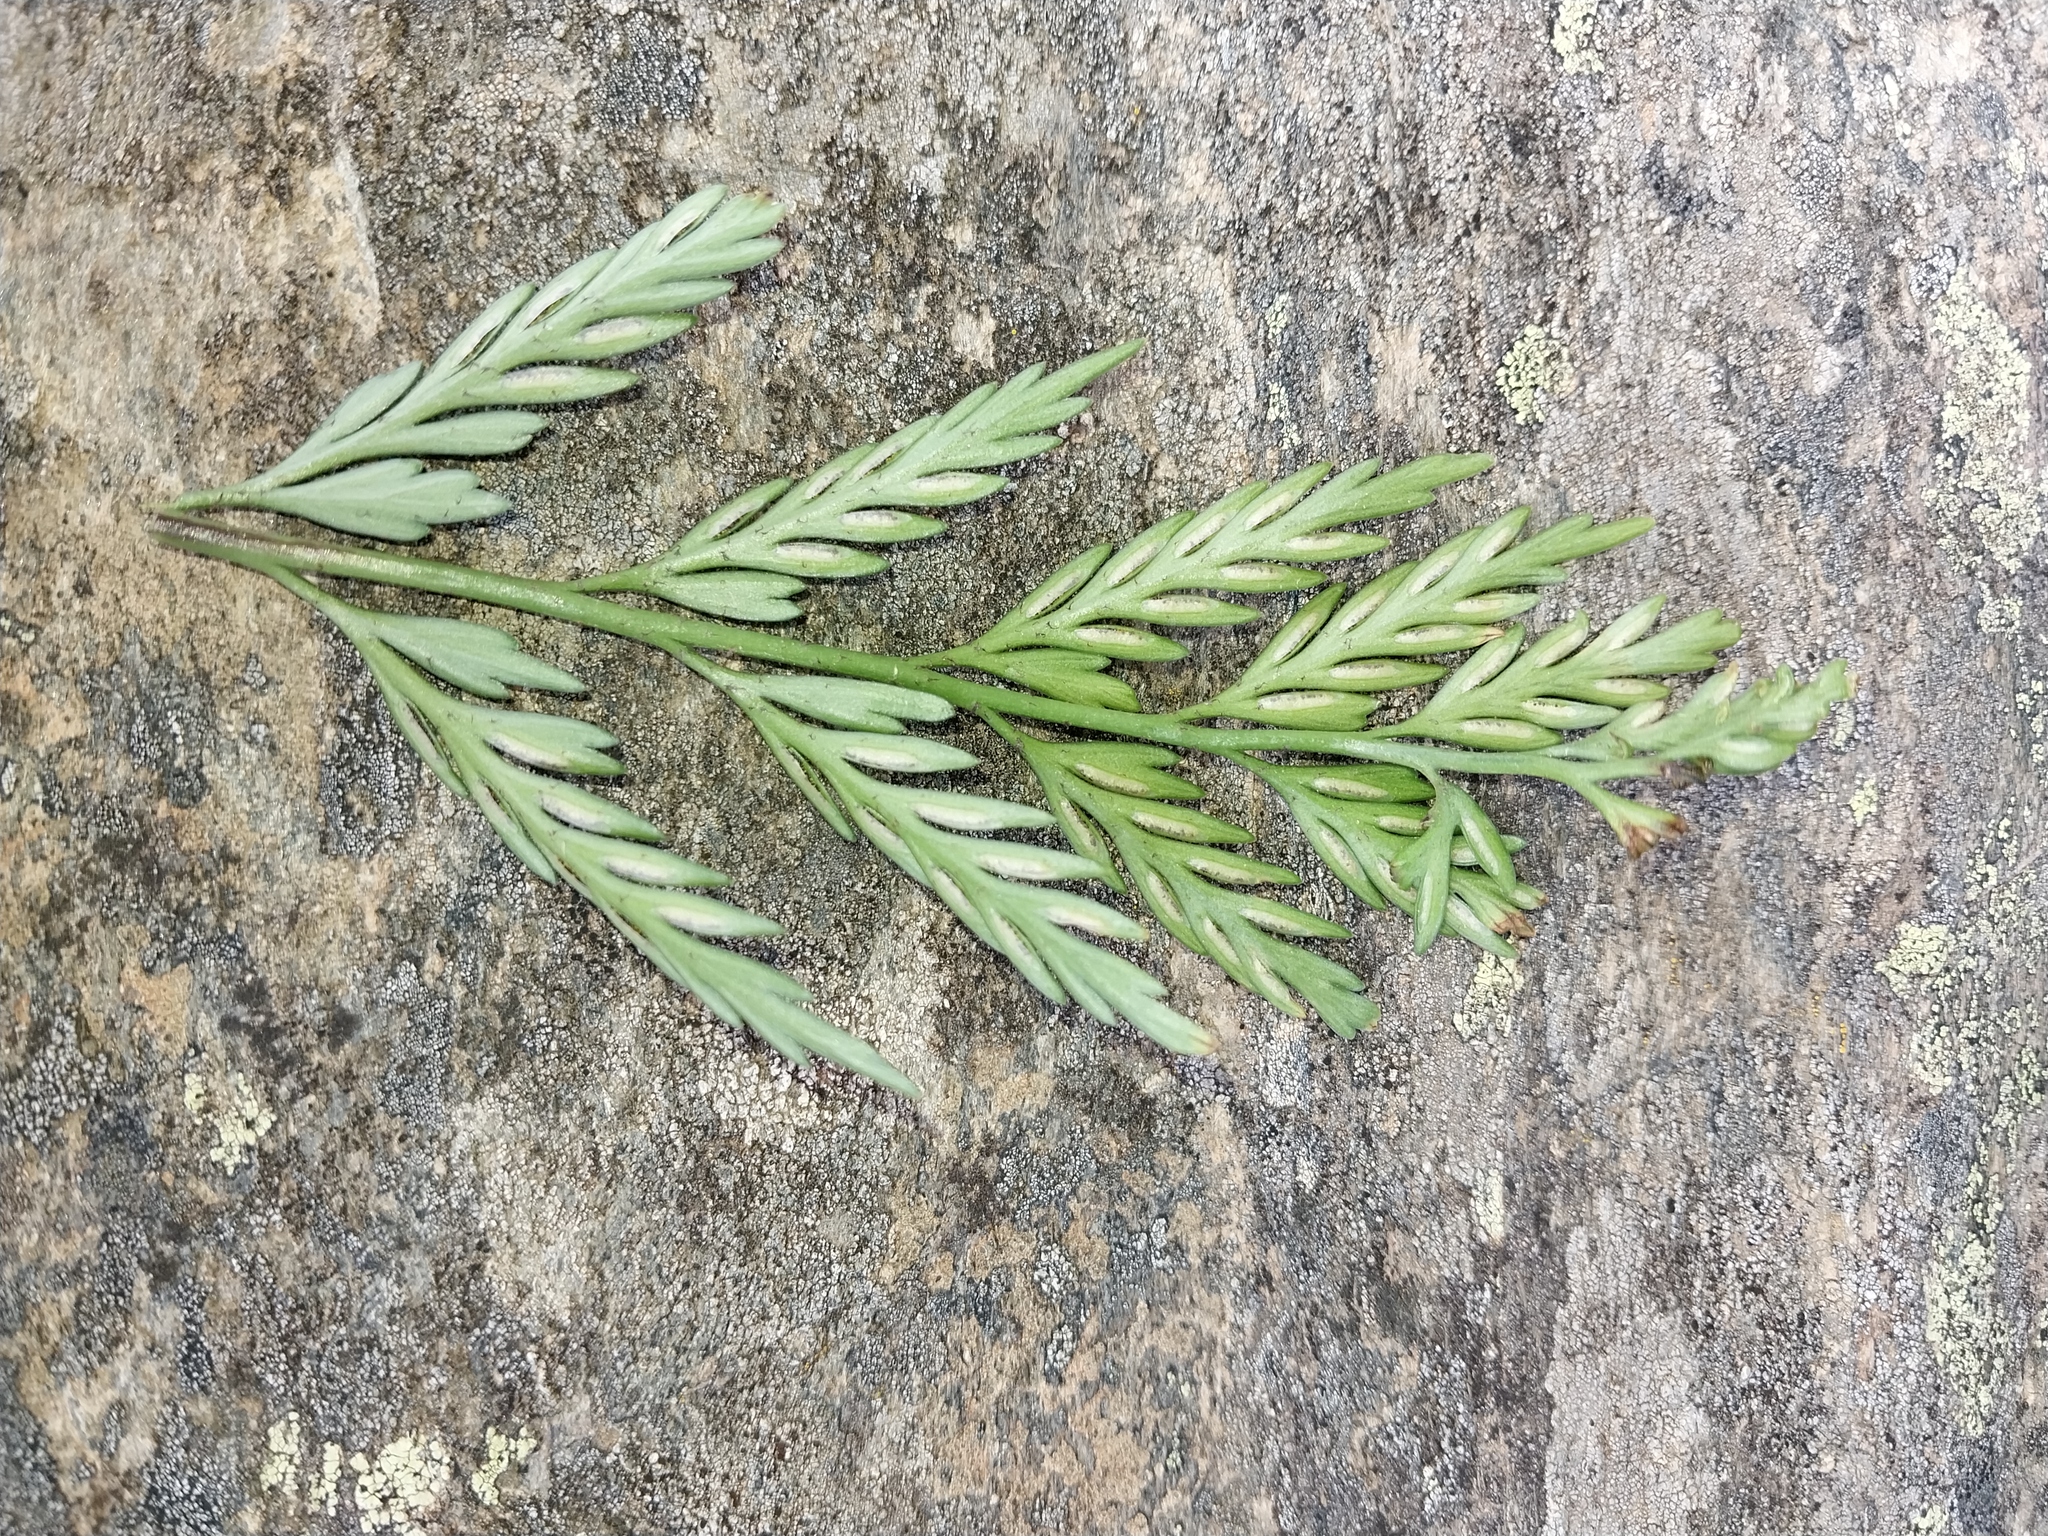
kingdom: Plantae
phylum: Tracheophyta
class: Polypodiopsida
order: Polypodiales
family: Aspleniaceae
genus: Asplenium
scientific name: Asplenium appendiculatum
